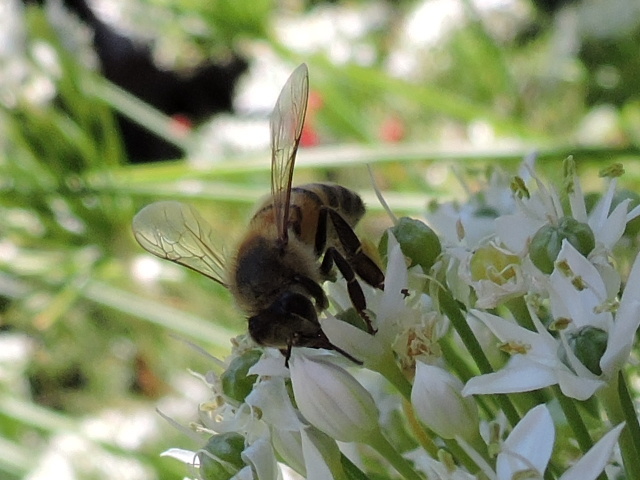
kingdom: Animalia
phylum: Arthropoda
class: Insecta
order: Hymenoptera
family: Apidae
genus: Apis
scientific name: Apis mellifera
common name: Honey bee
